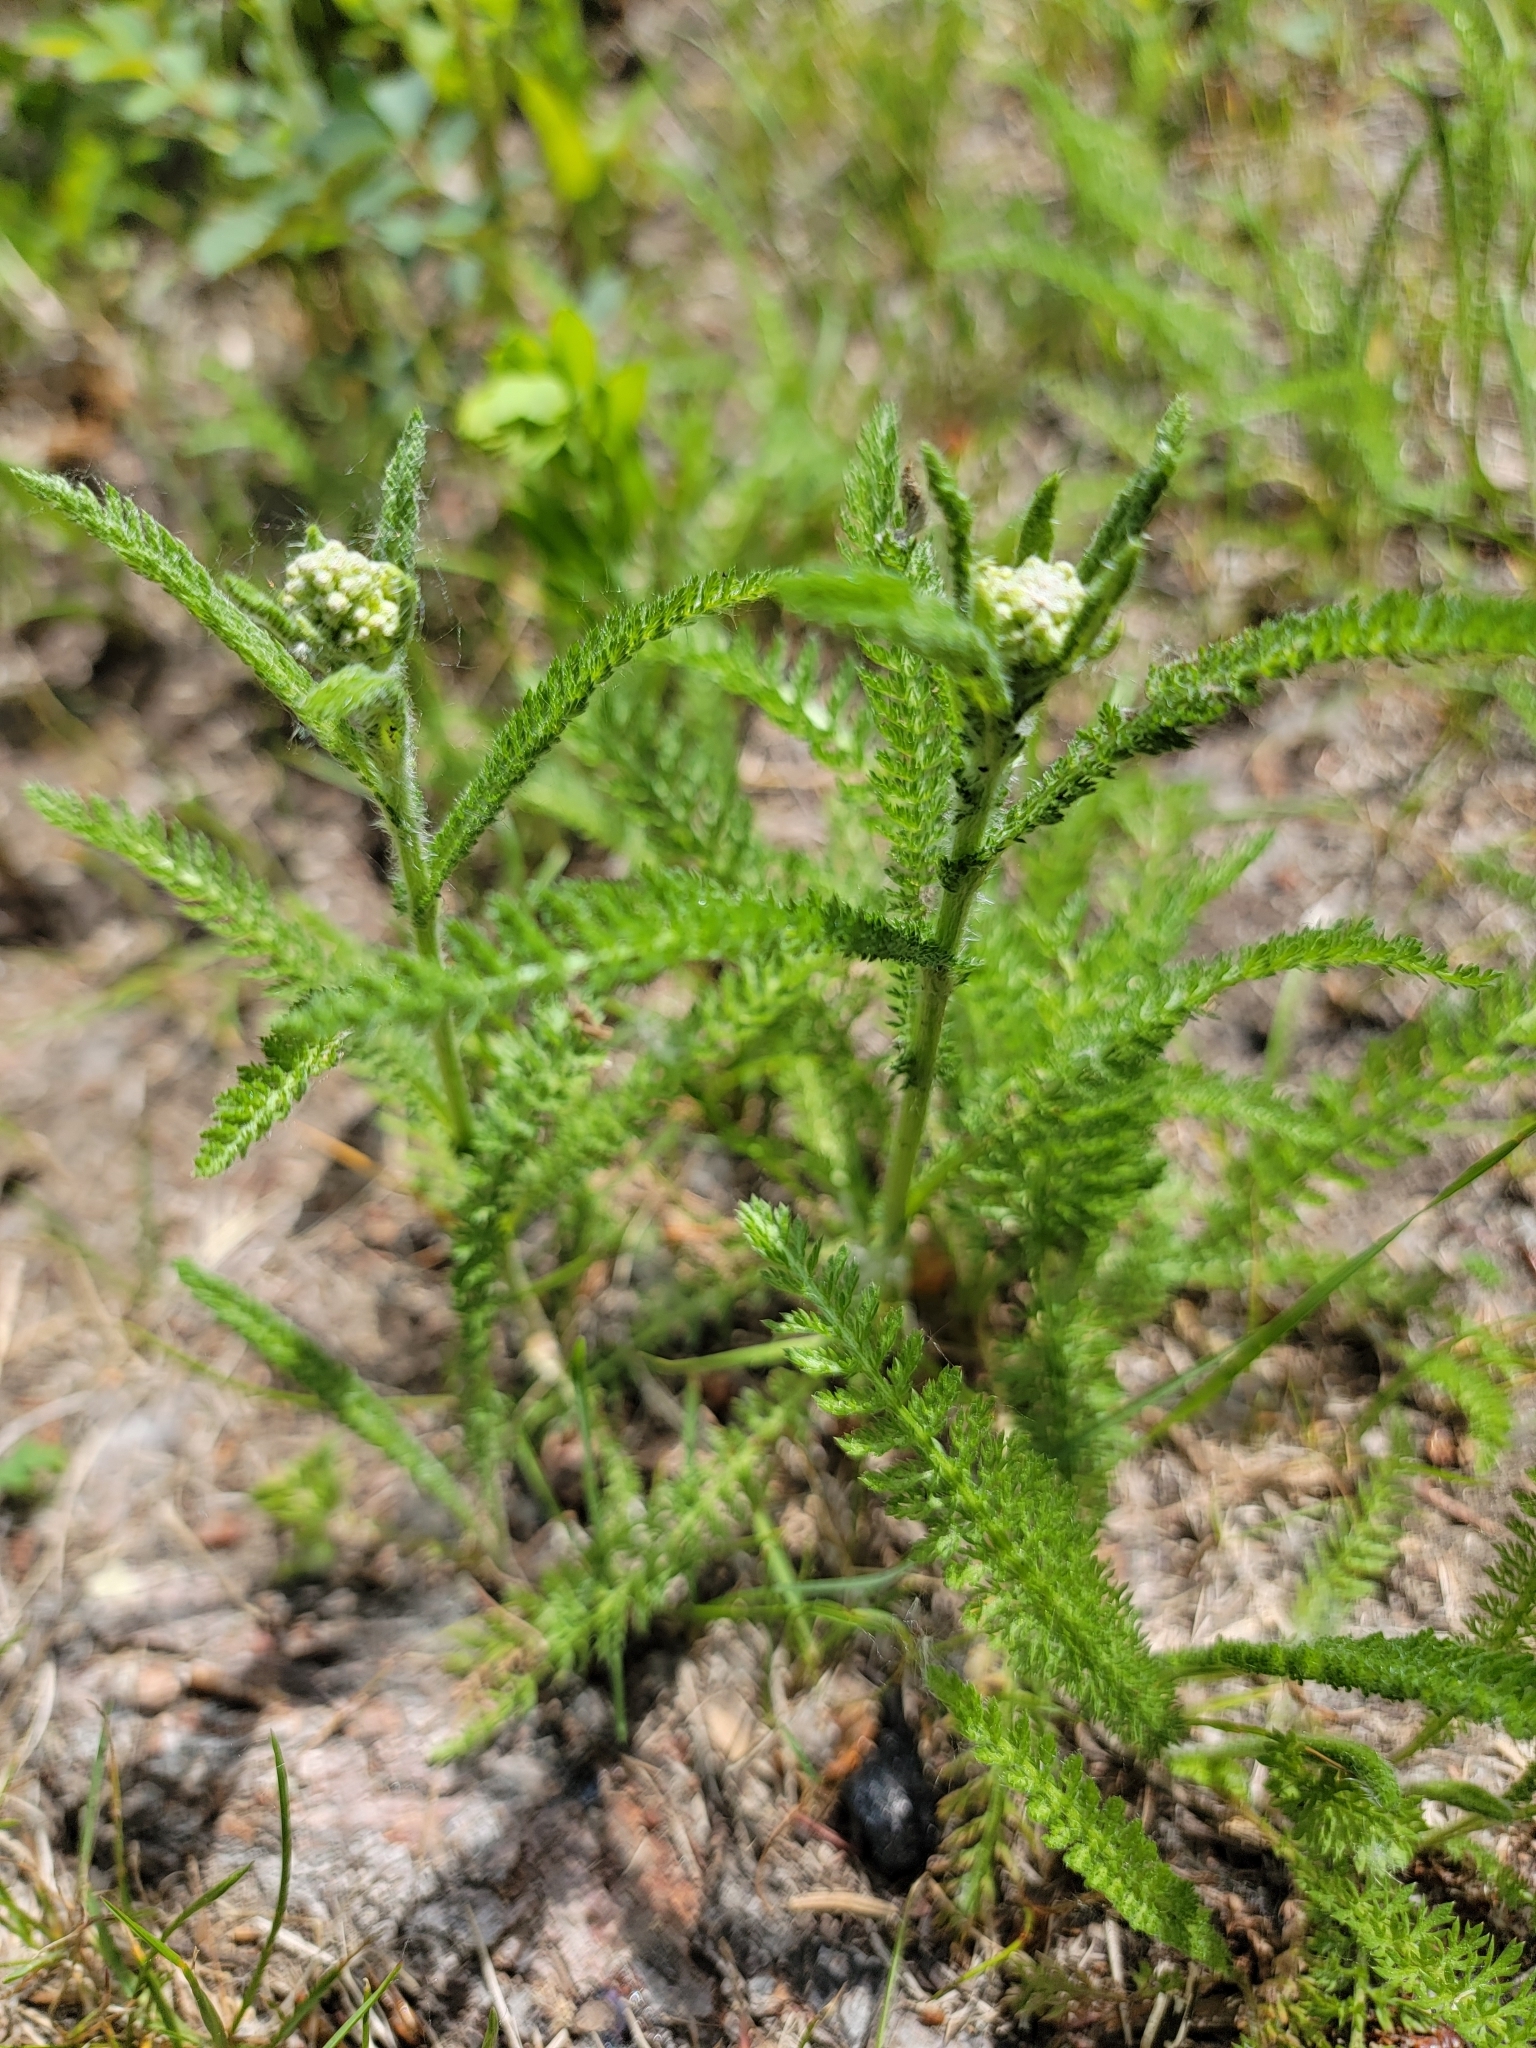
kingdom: Plantae
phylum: Tracheophyta
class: Magnoliopsida
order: Asterales
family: Asteraceae
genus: Achillea
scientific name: Achillea millefolium
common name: Yarrow
